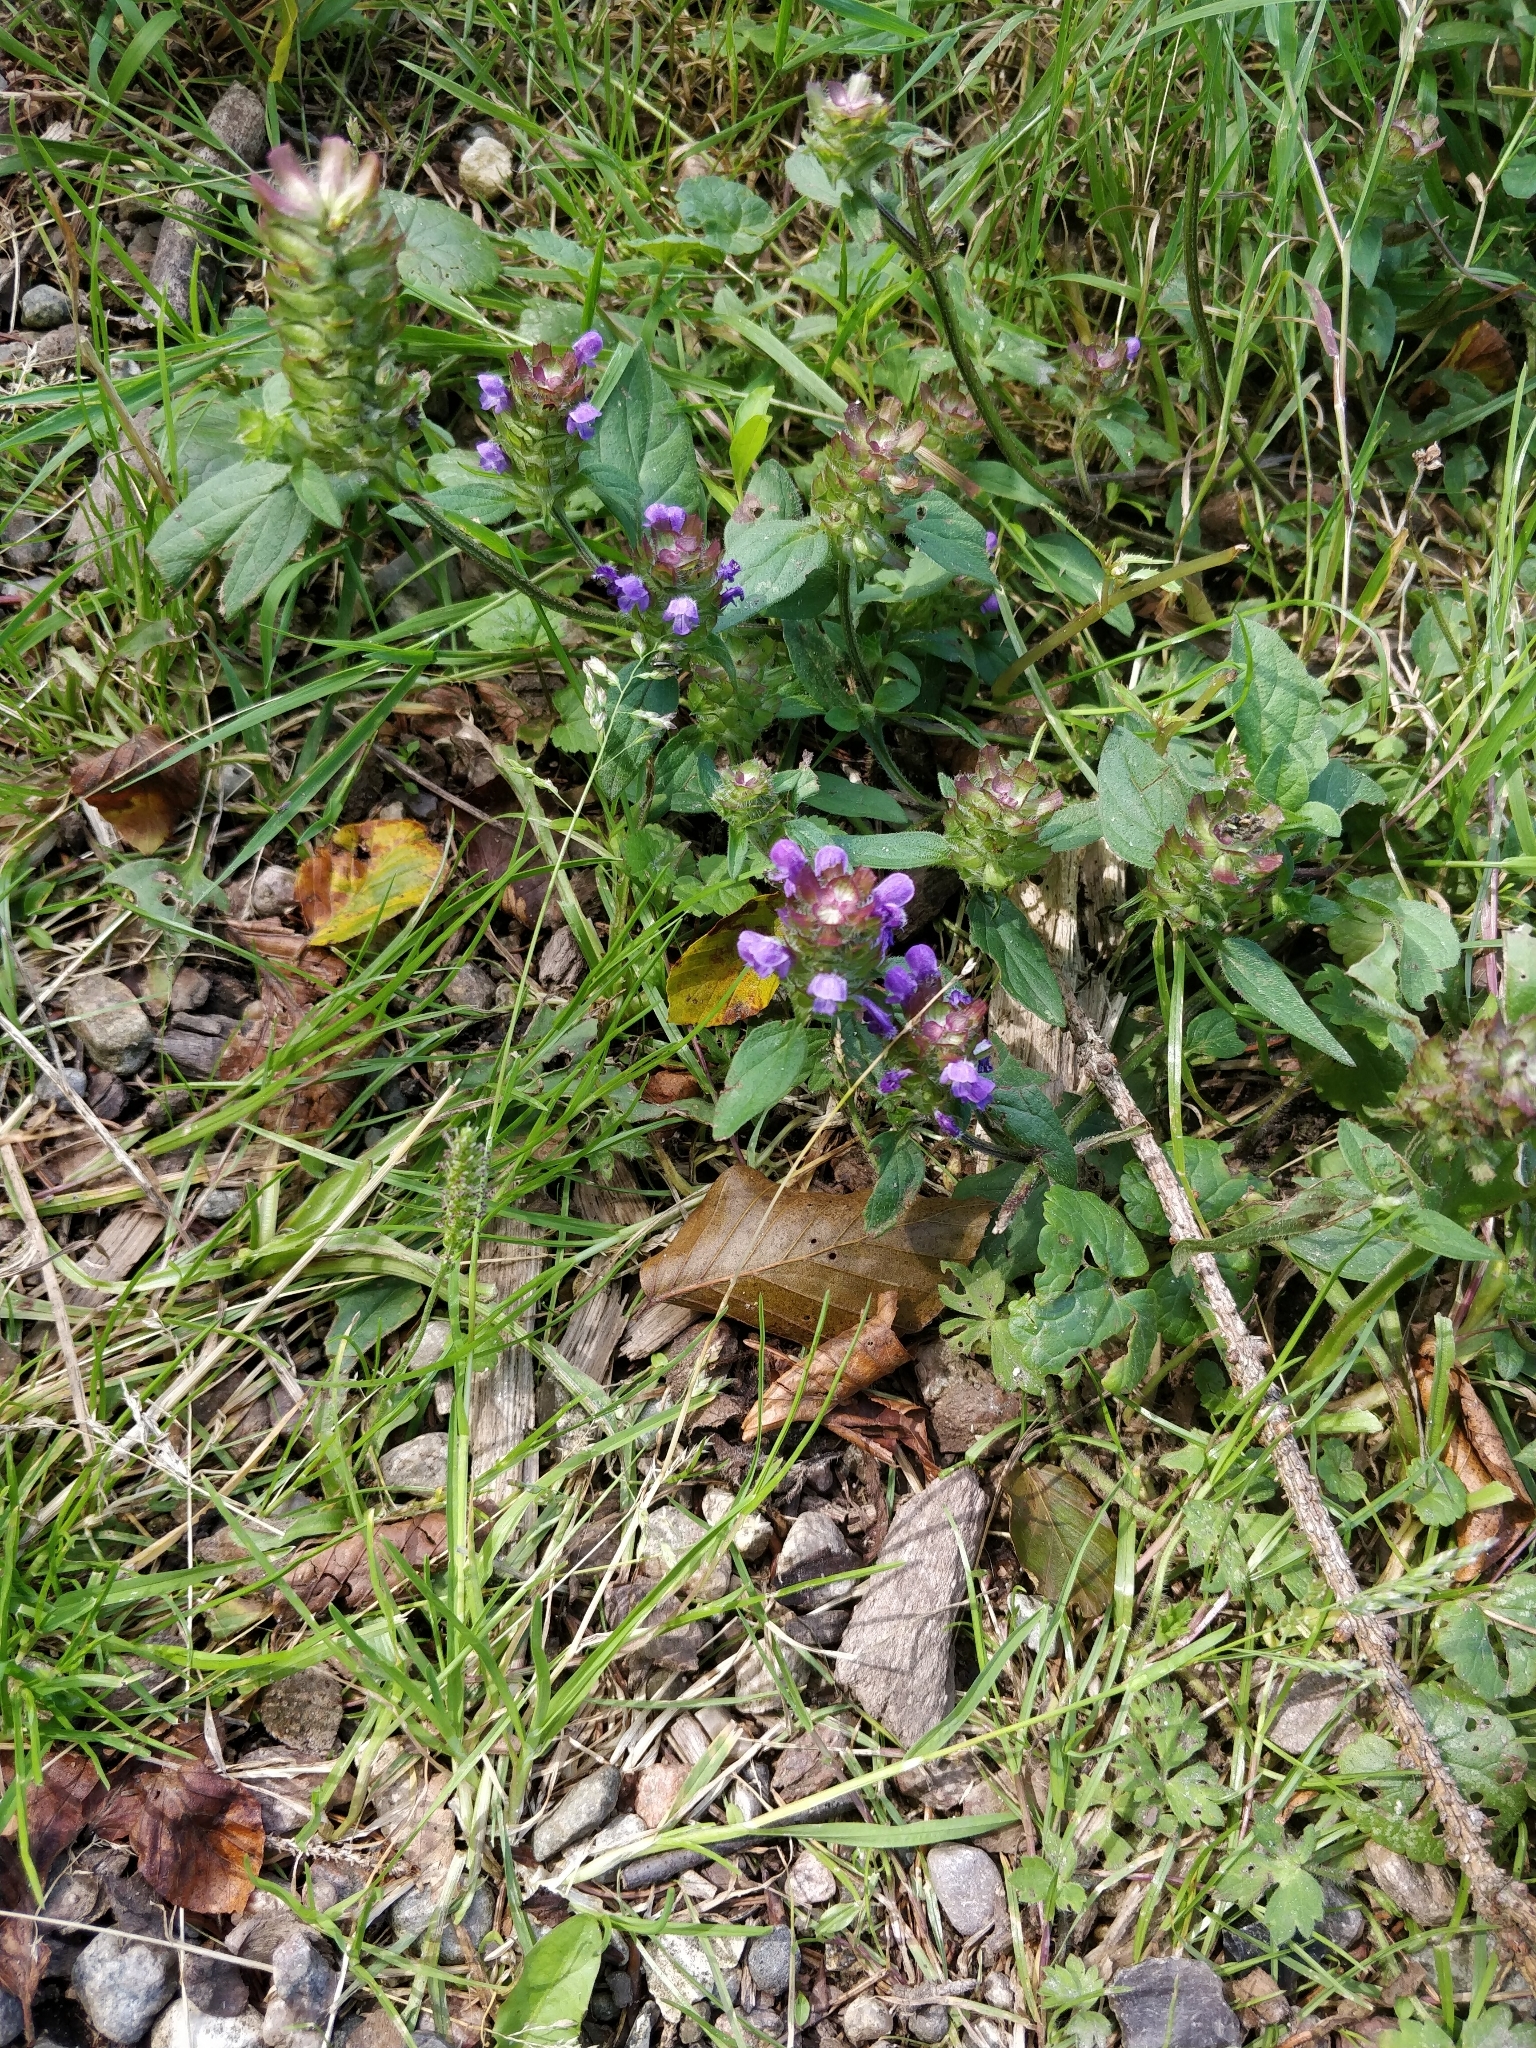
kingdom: Plantae
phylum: Tracheophyta
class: Magnoliopsida
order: Lamiales
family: Lamiaceae
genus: Prunella
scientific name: Prunella vulgaris
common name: Heal-all
